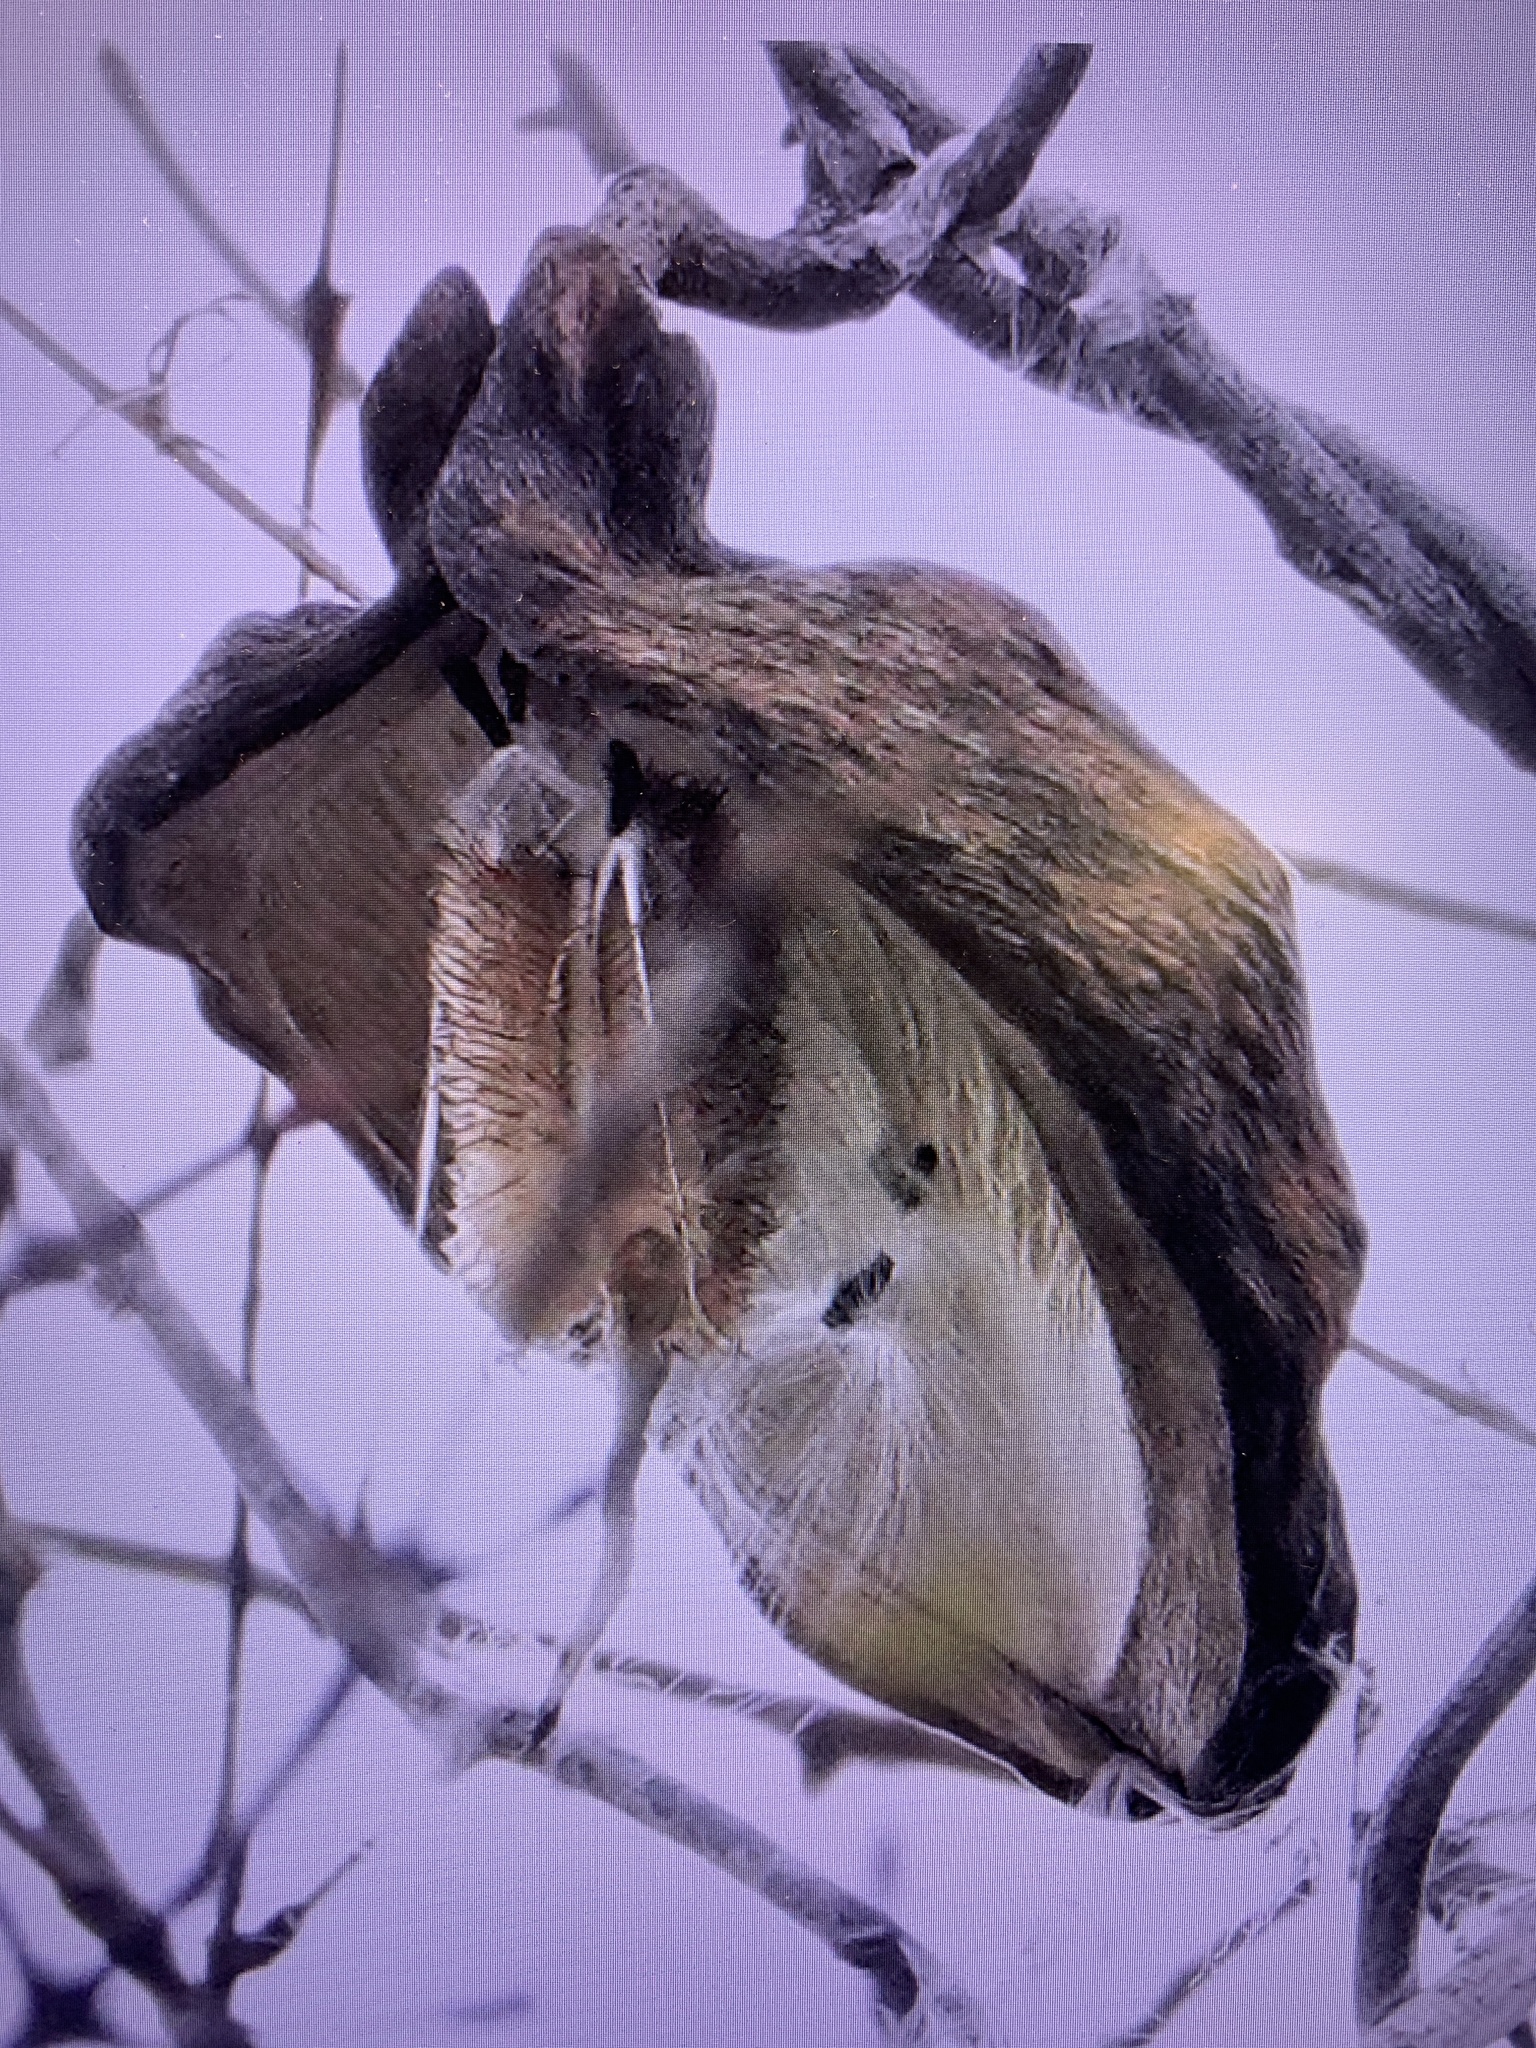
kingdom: Plantae
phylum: Tracheophyta
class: Magnoliopsida
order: Gentianales
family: Apocynaceae
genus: Araujia
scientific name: Araujia odorata
